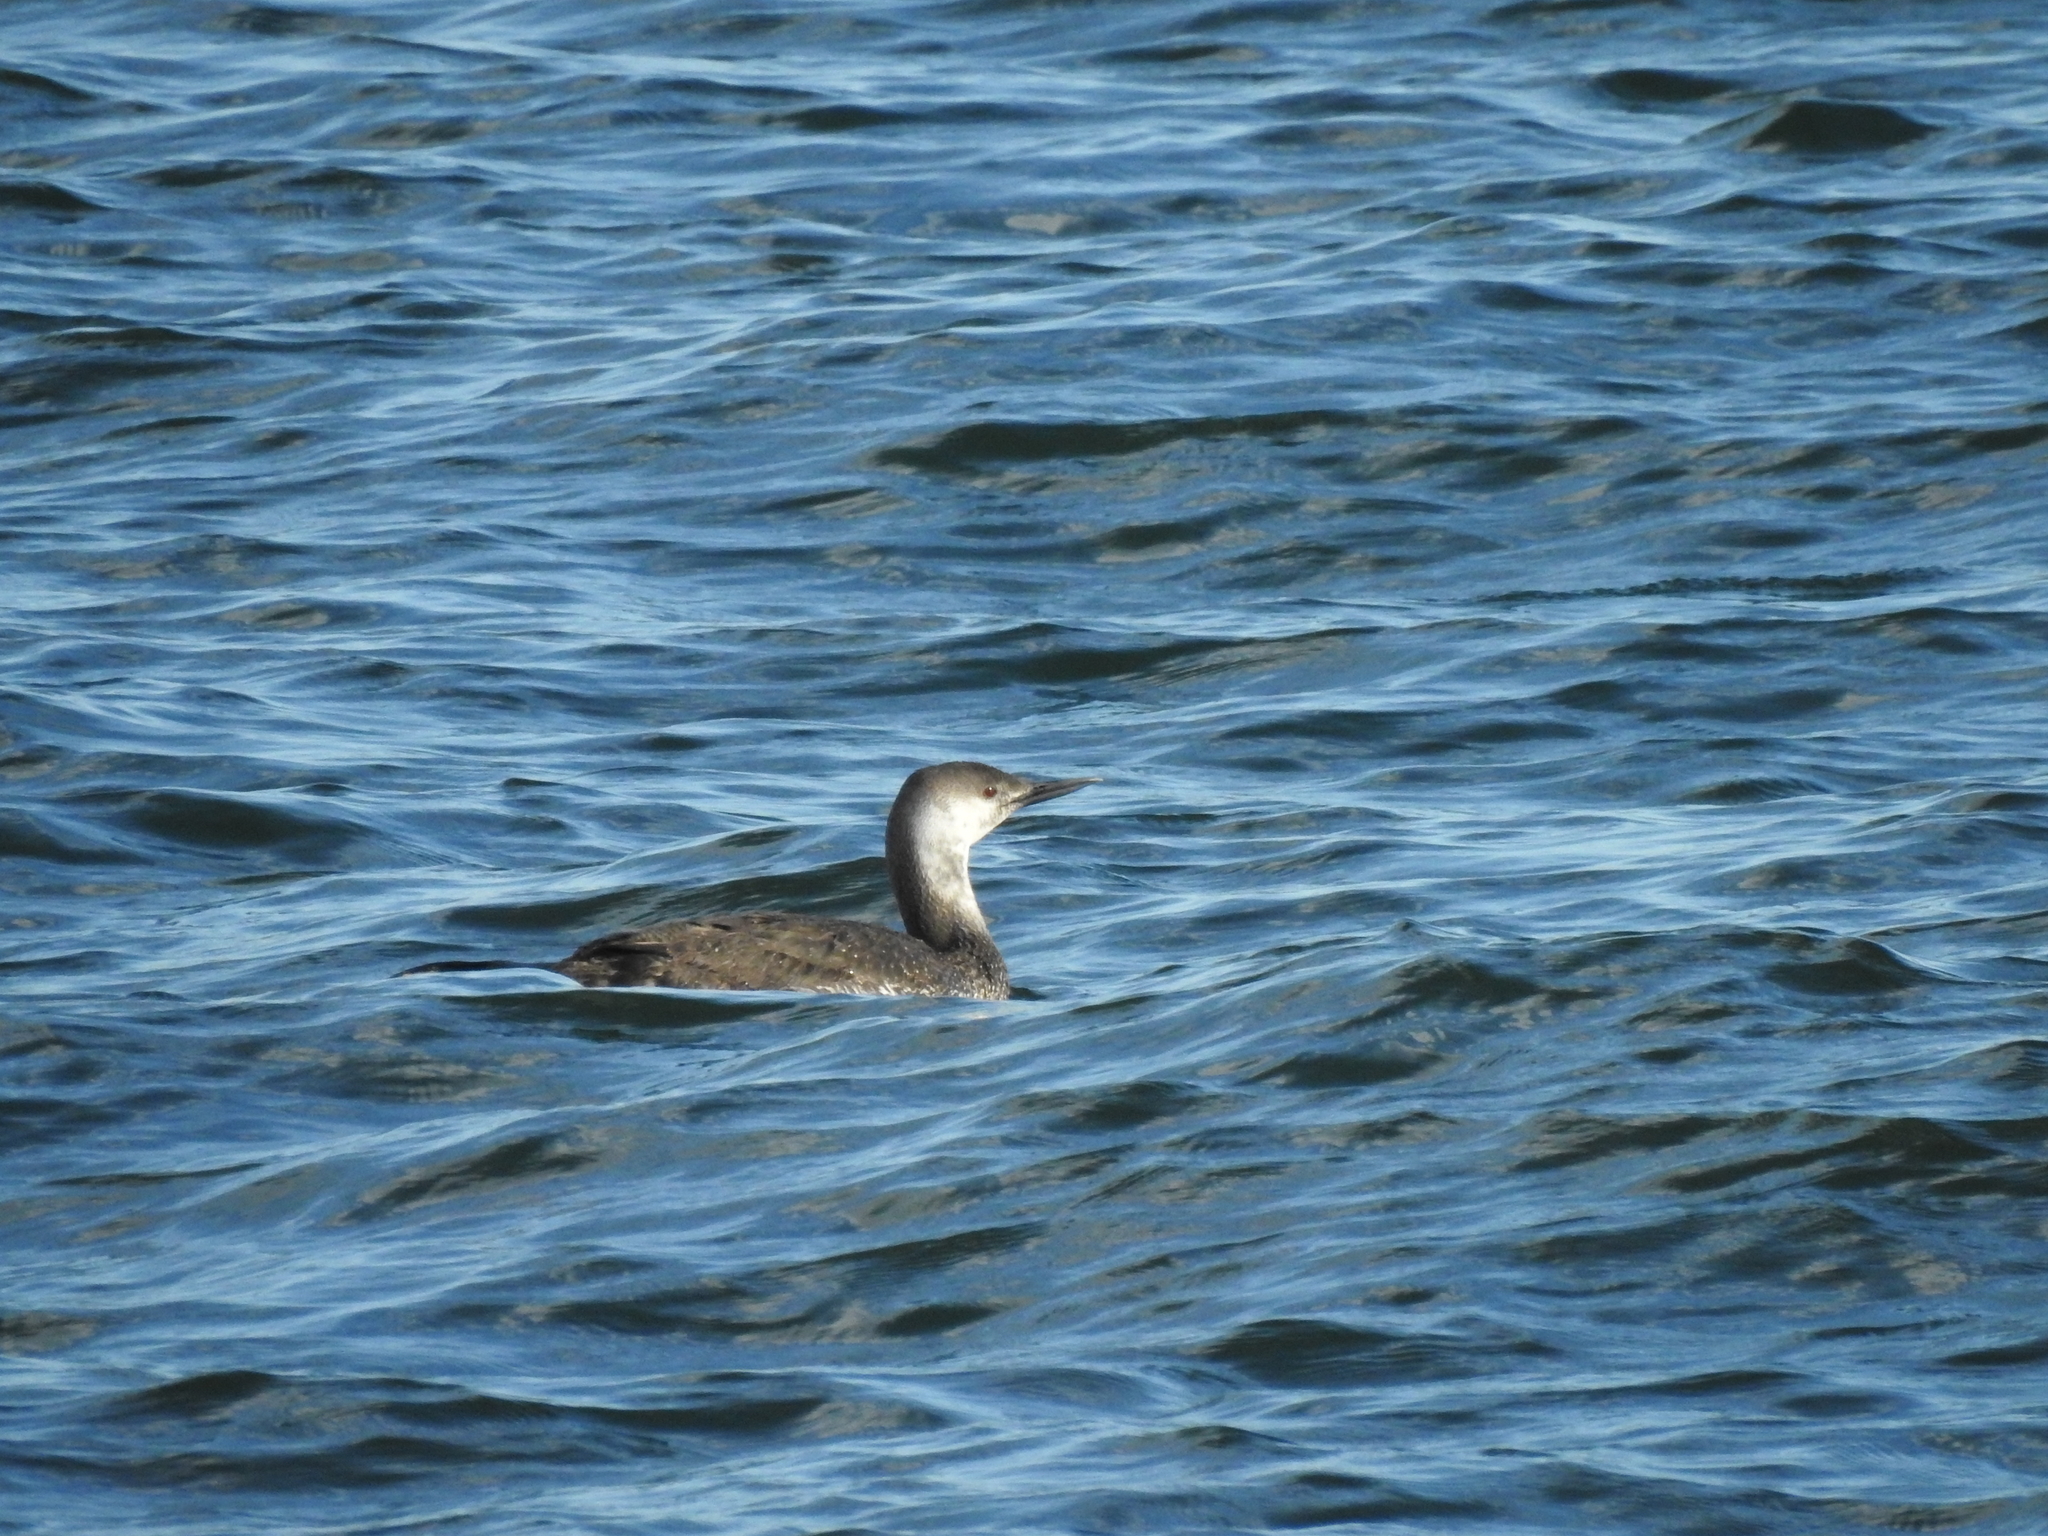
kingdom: Animalia
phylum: Chordata
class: Aves
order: Gaviiformes
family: Gaviidae
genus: Gavia
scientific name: Gavia stellata
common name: Red-throated loon
